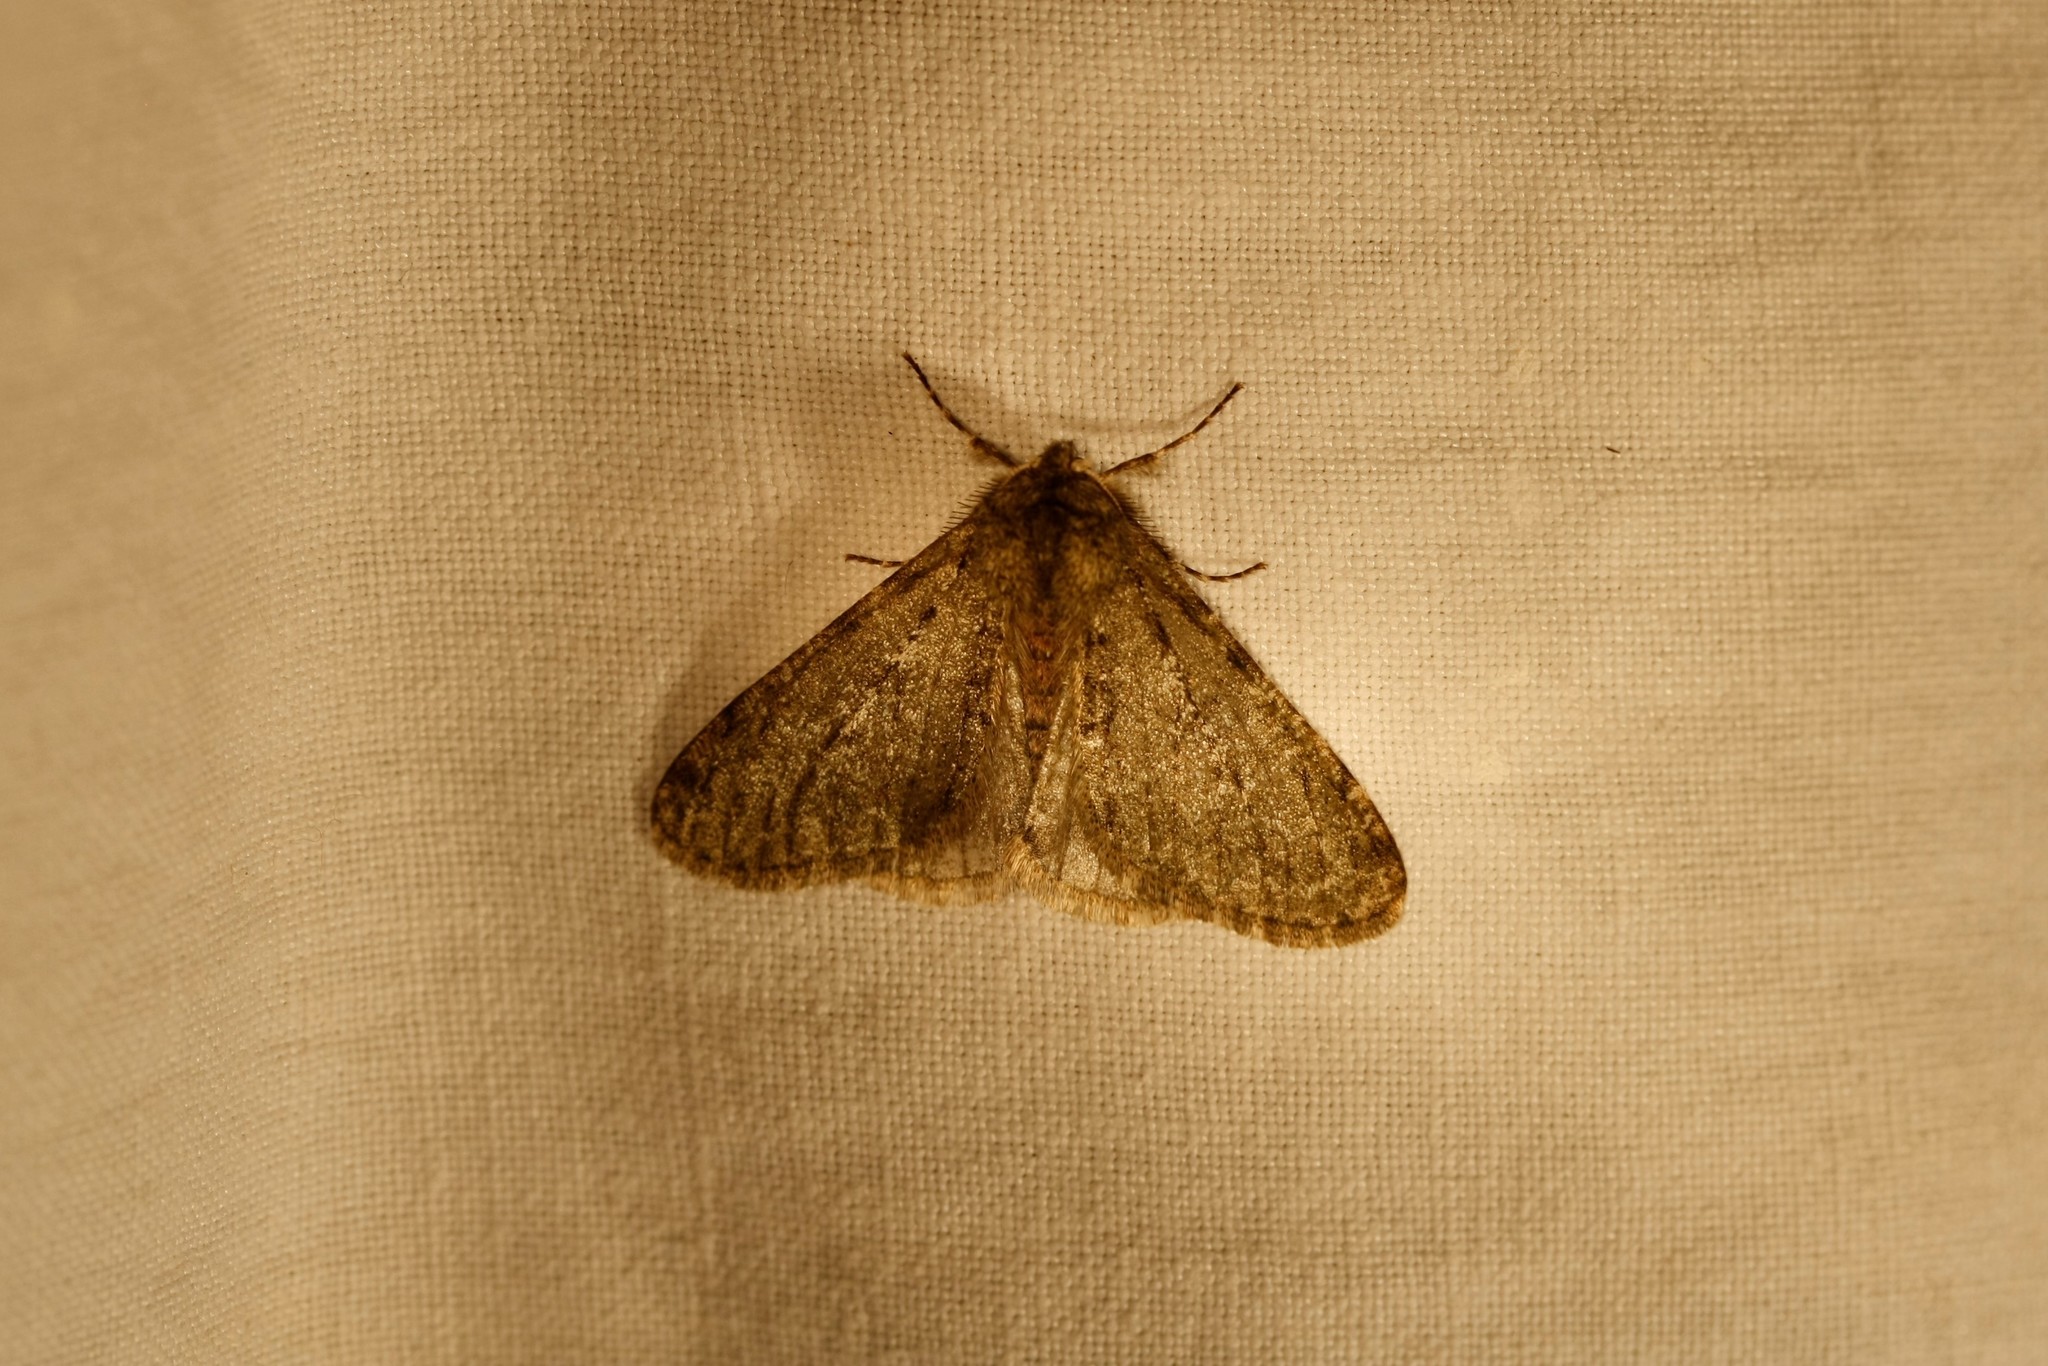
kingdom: Animalia
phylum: Arthropoda
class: Insecta
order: Lepidoptera
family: Geometridae
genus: Phigalia
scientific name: Phigalia pilosaria
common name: Pale brindled beauty
